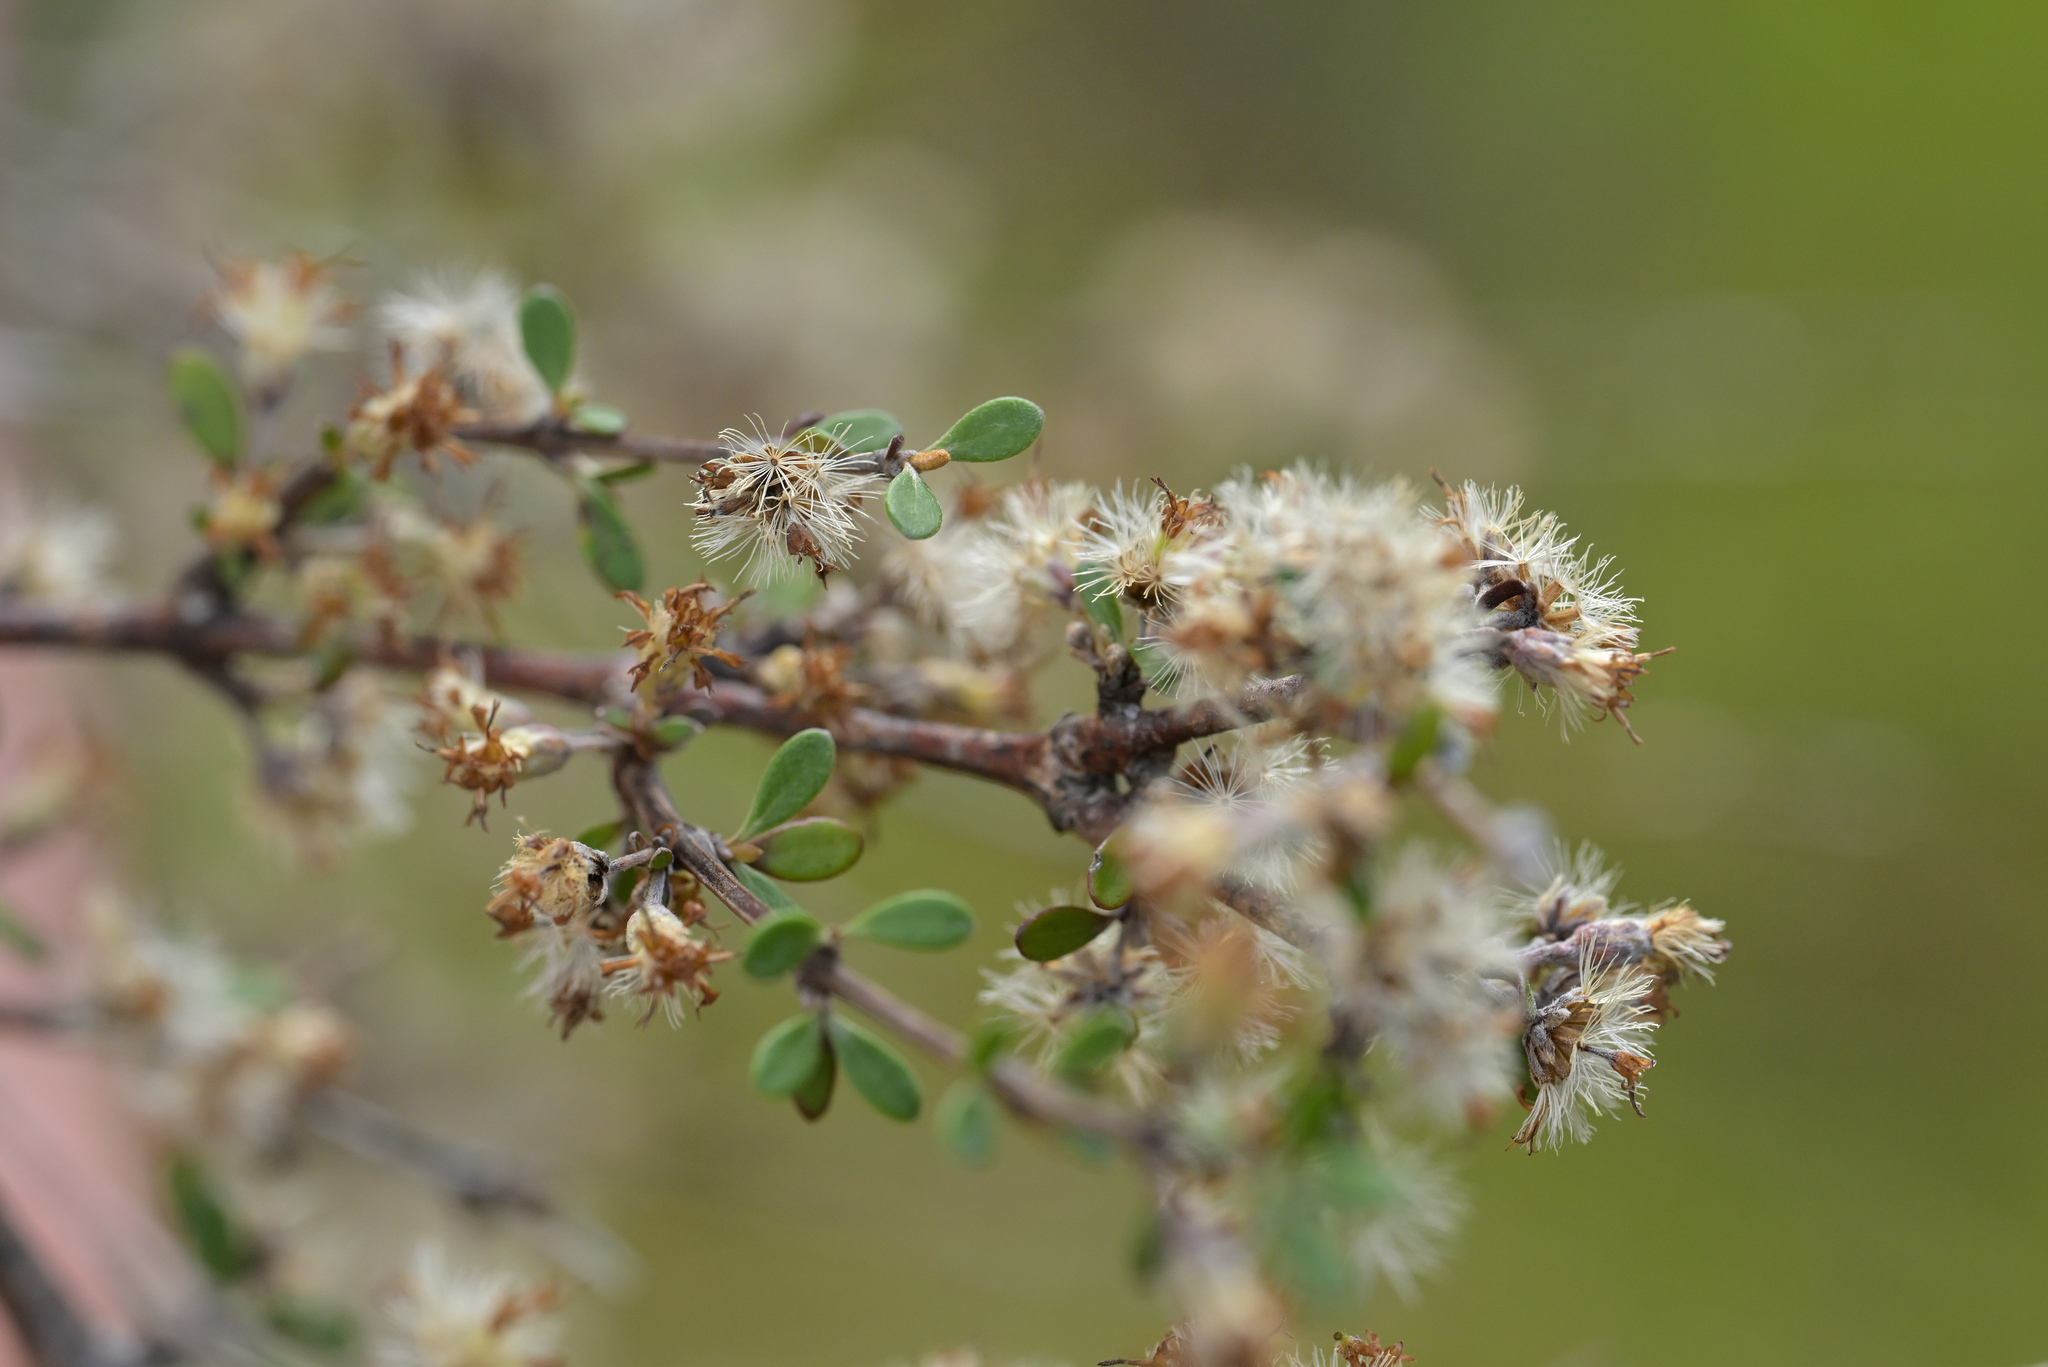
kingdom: Plantae
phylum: Tracheophyta
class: Magnoliopsida
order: Asterales
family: Asteraceae
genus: Olearia
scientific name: Olearia virgata
